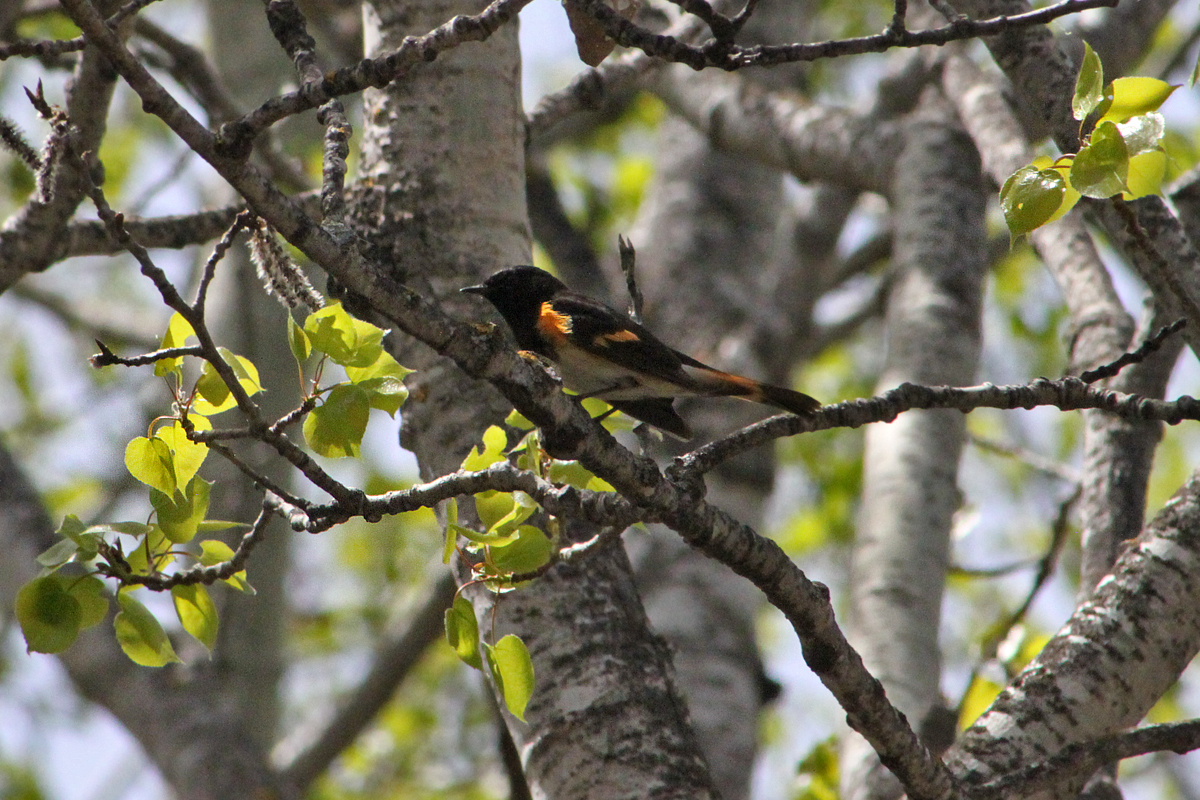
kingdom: Animalia
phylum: Chordata
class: Aves
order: Passeriformes
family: Parulidae
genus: Setophaga
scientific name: Setophaga ruticilla
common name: American redstart
